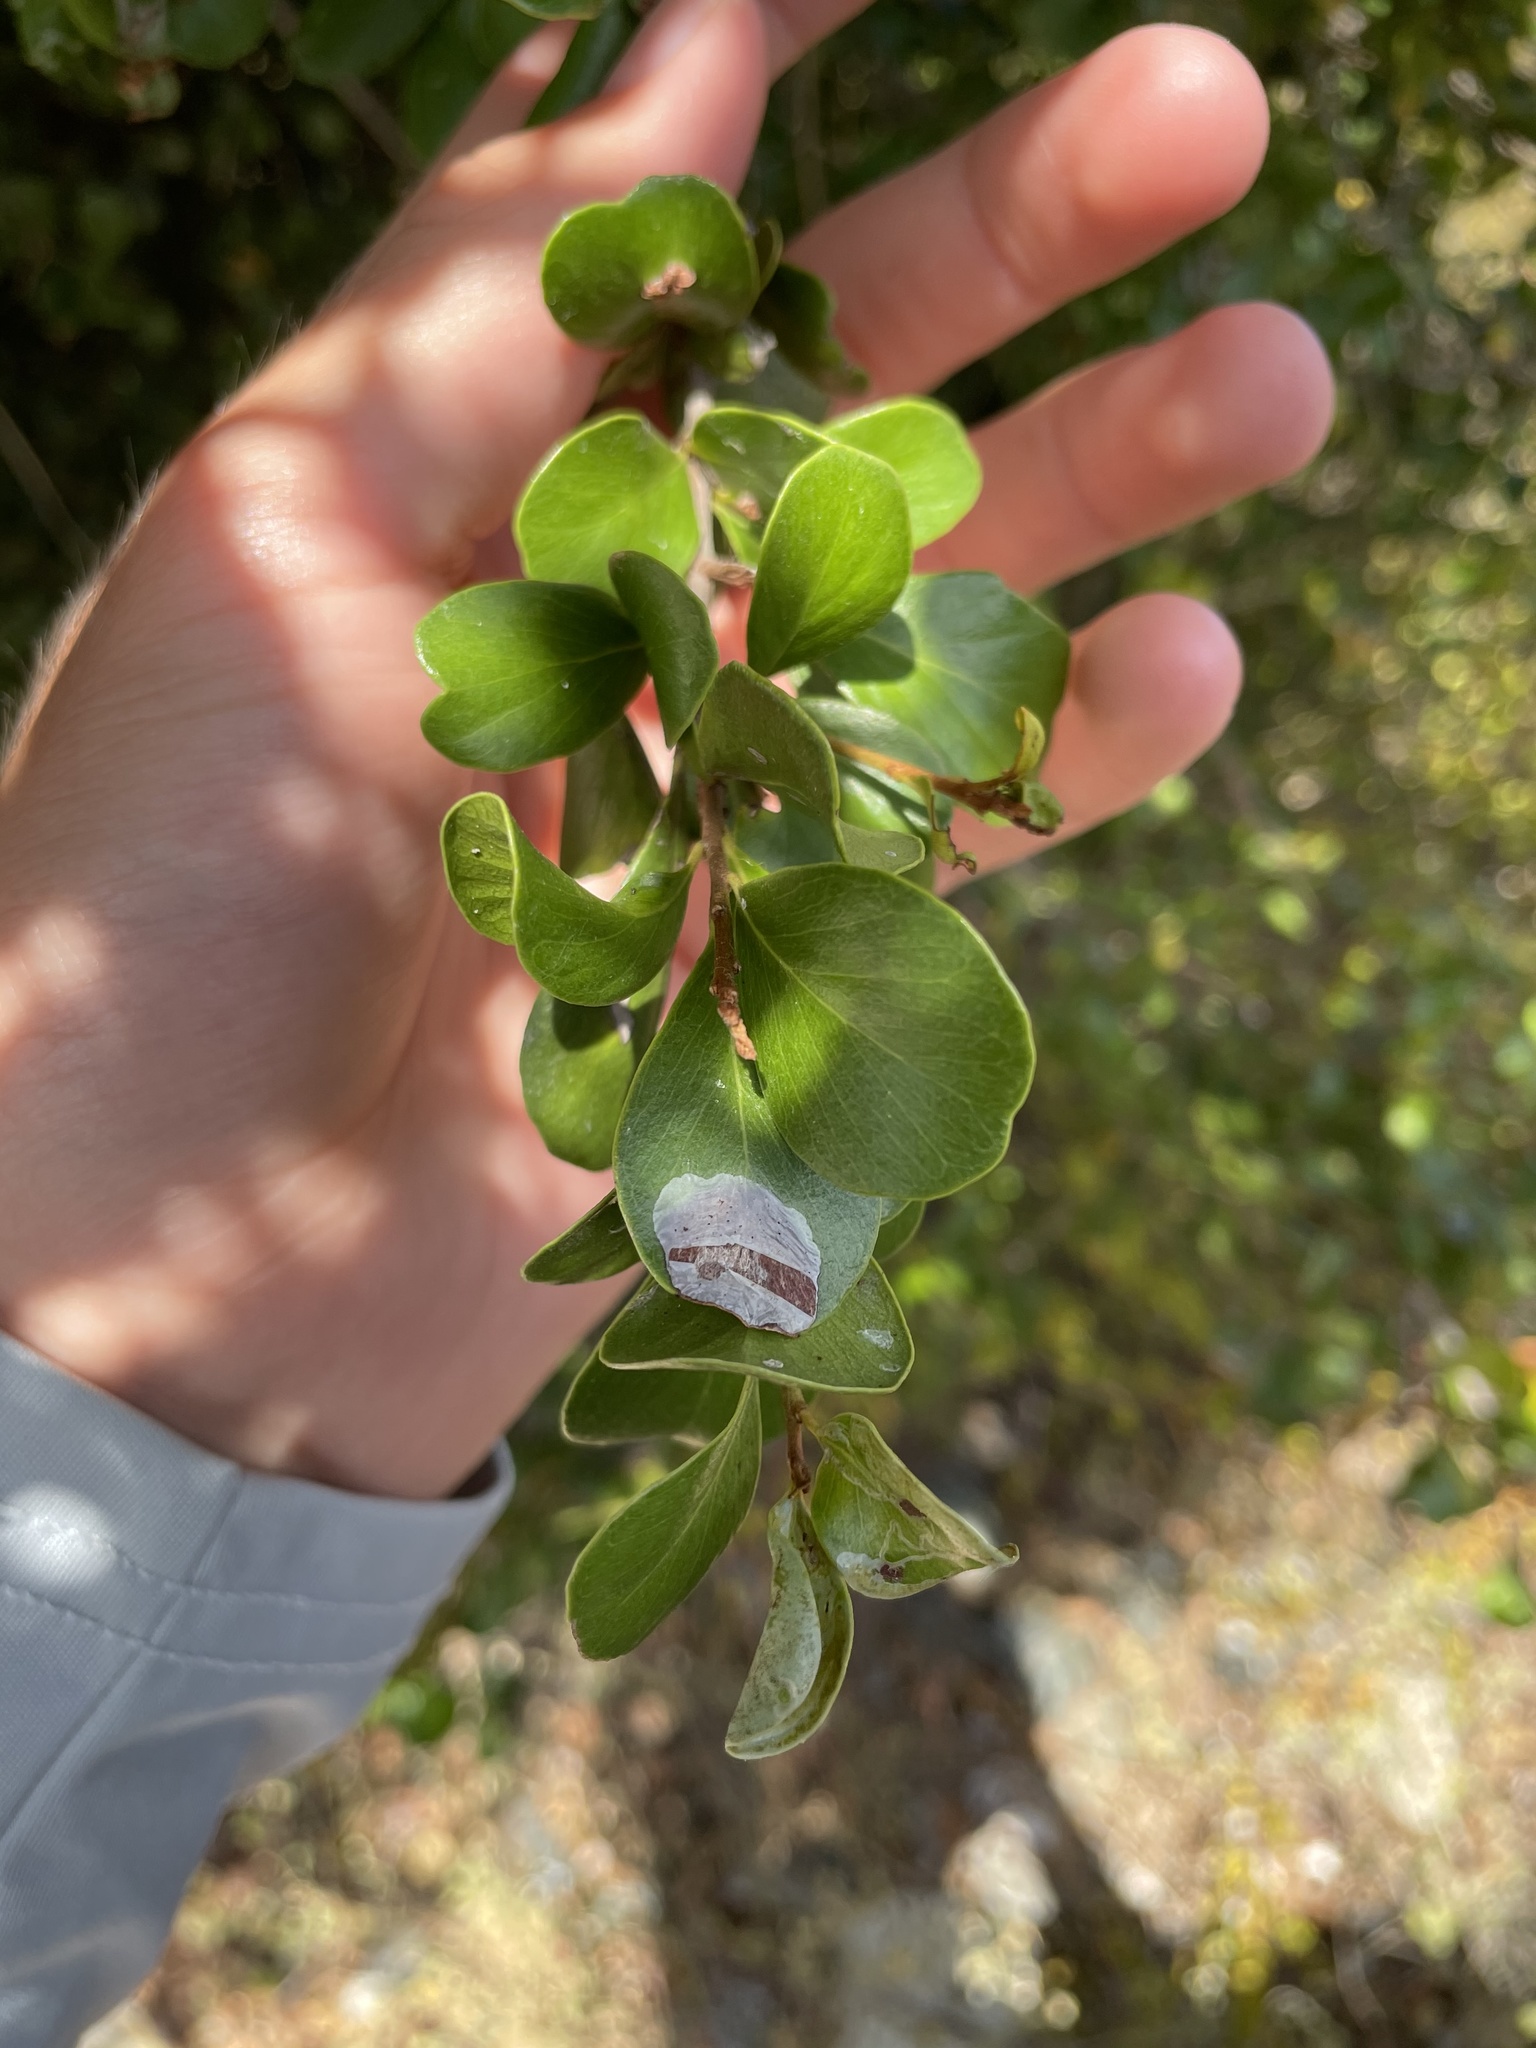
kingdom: Plantae
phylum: Tracheophyta
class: Magnoliopsida
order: Ericales
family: Sapotaceae
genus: Sideroxylon
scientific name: Sideroxylon obovatum
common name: Breakbill
